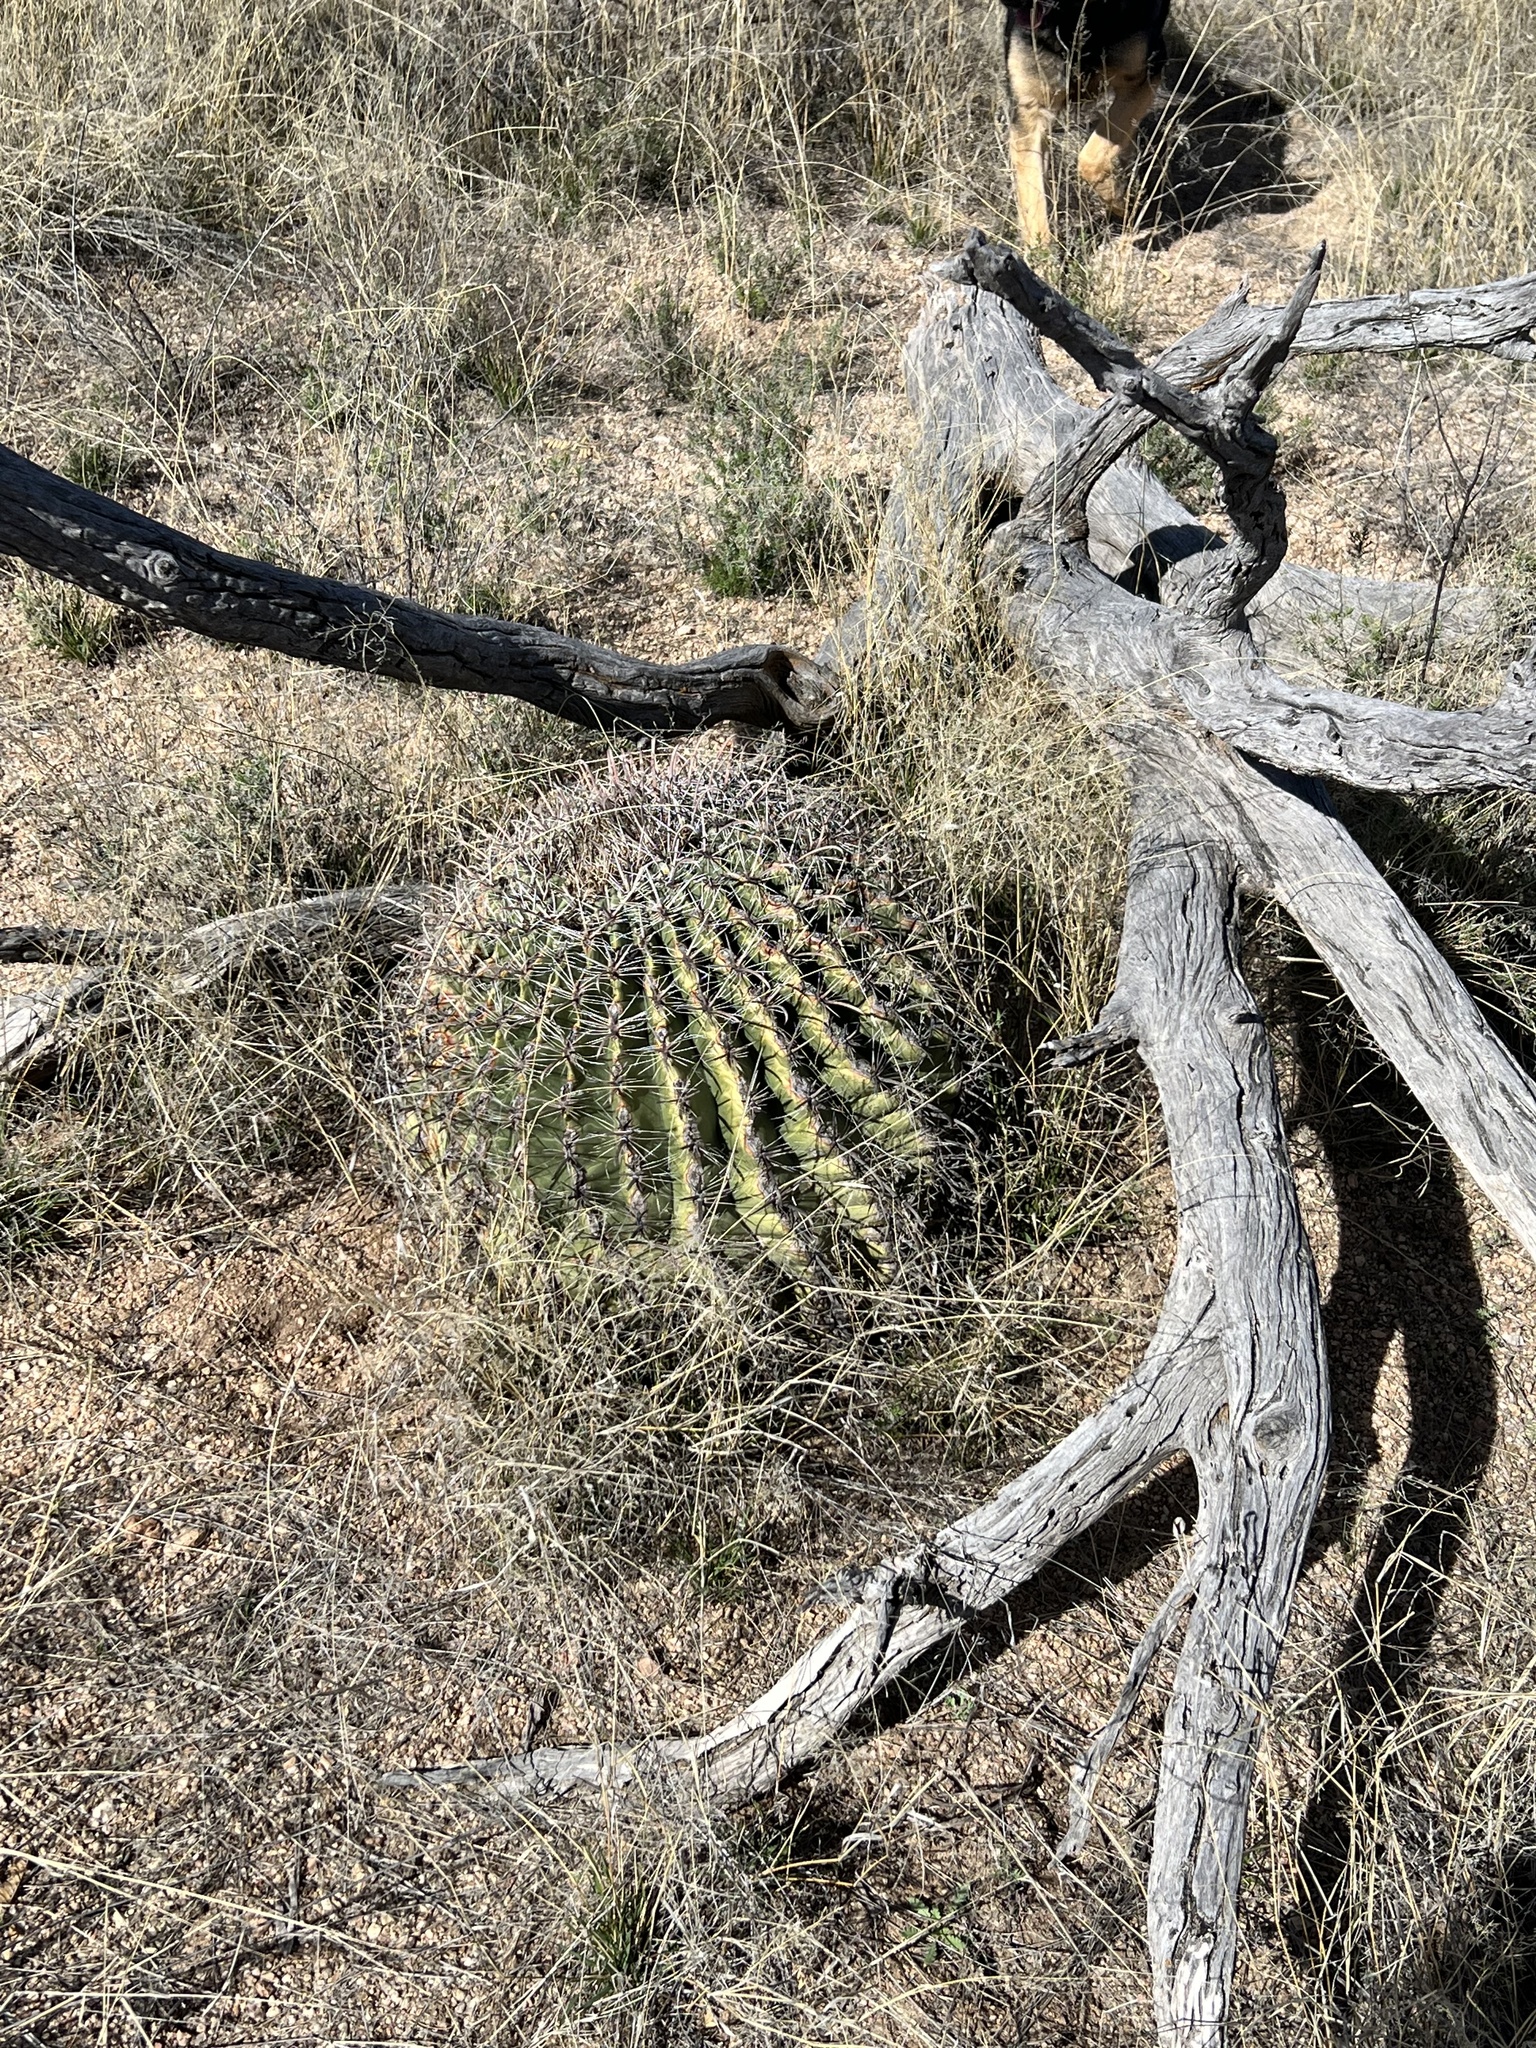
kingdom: Plantae
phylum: Tracheophyta
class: Magnoliopsida
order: Caryophyllales
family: Cactaceae
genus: Ferocactus
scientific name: Ferocactus wislizeni
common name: Candy barrel cactus
